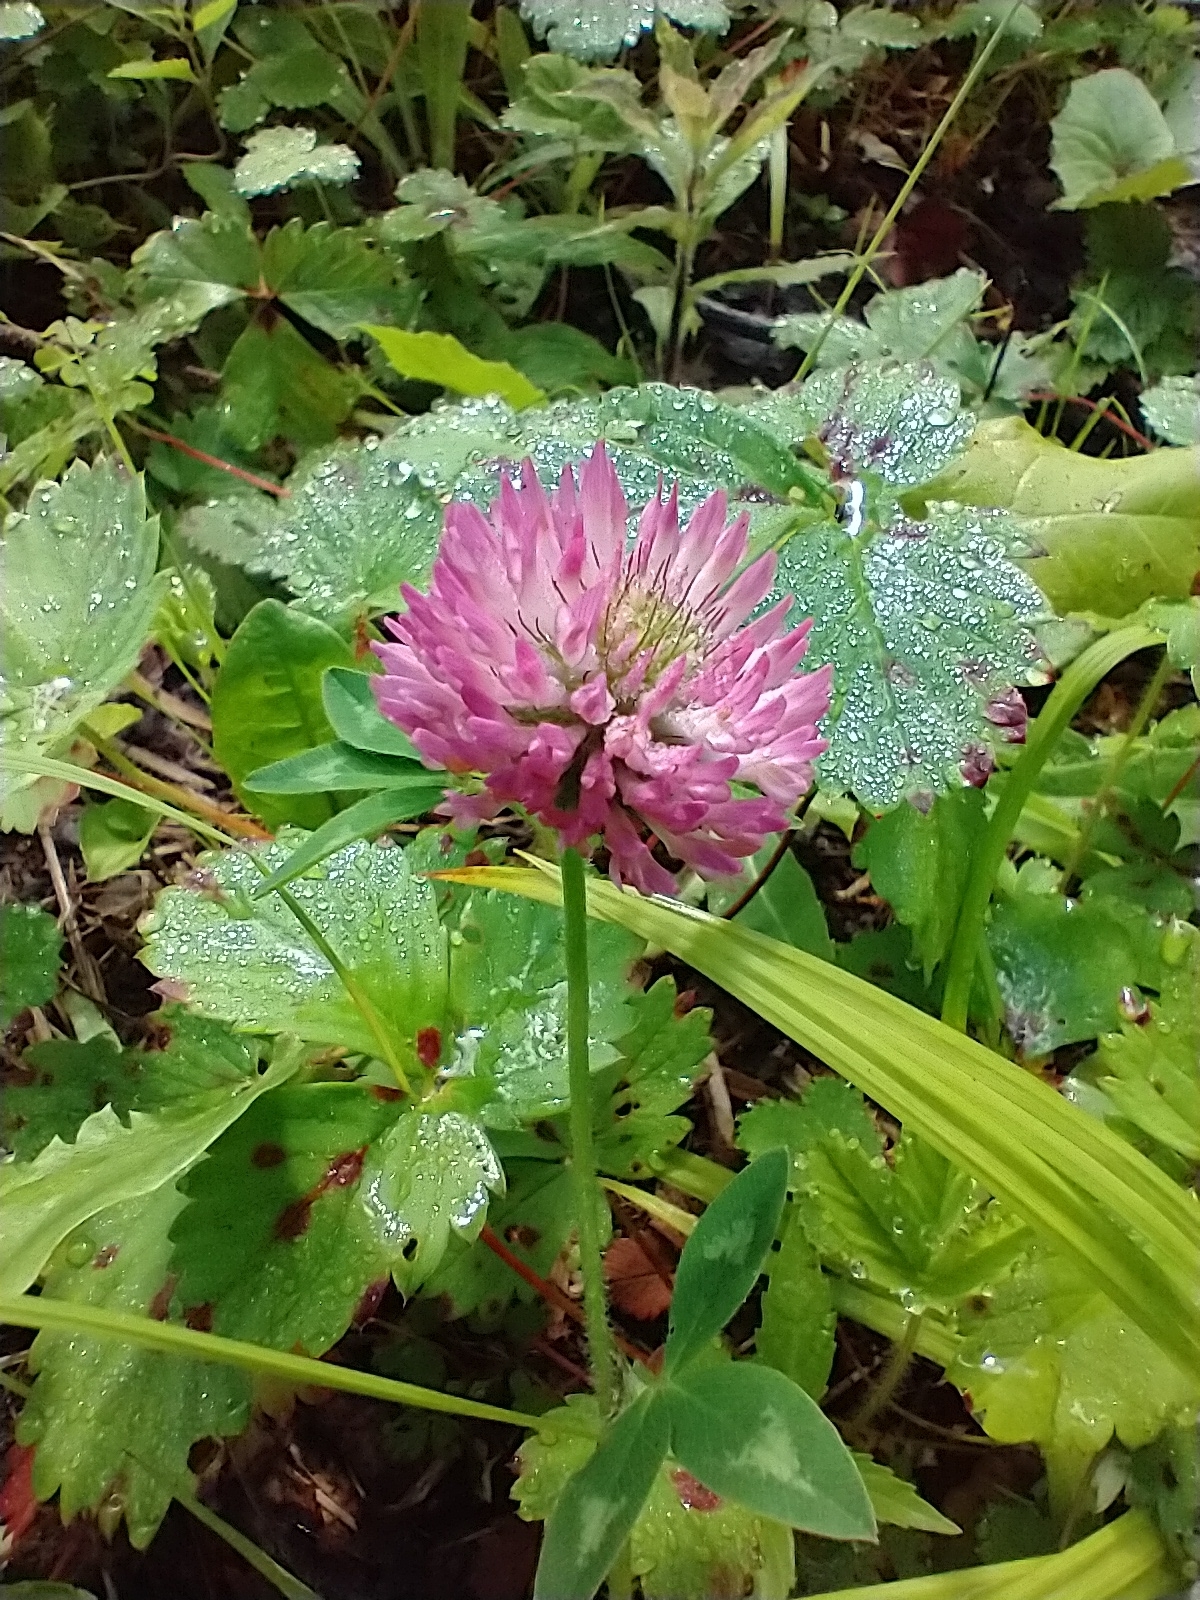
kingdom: Plantae
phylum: Tracheophyta
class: Magnoliopsida
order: Fabales
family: Fabaceae
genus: Trifolium
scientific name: Trifolium pratense
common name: Red clover
